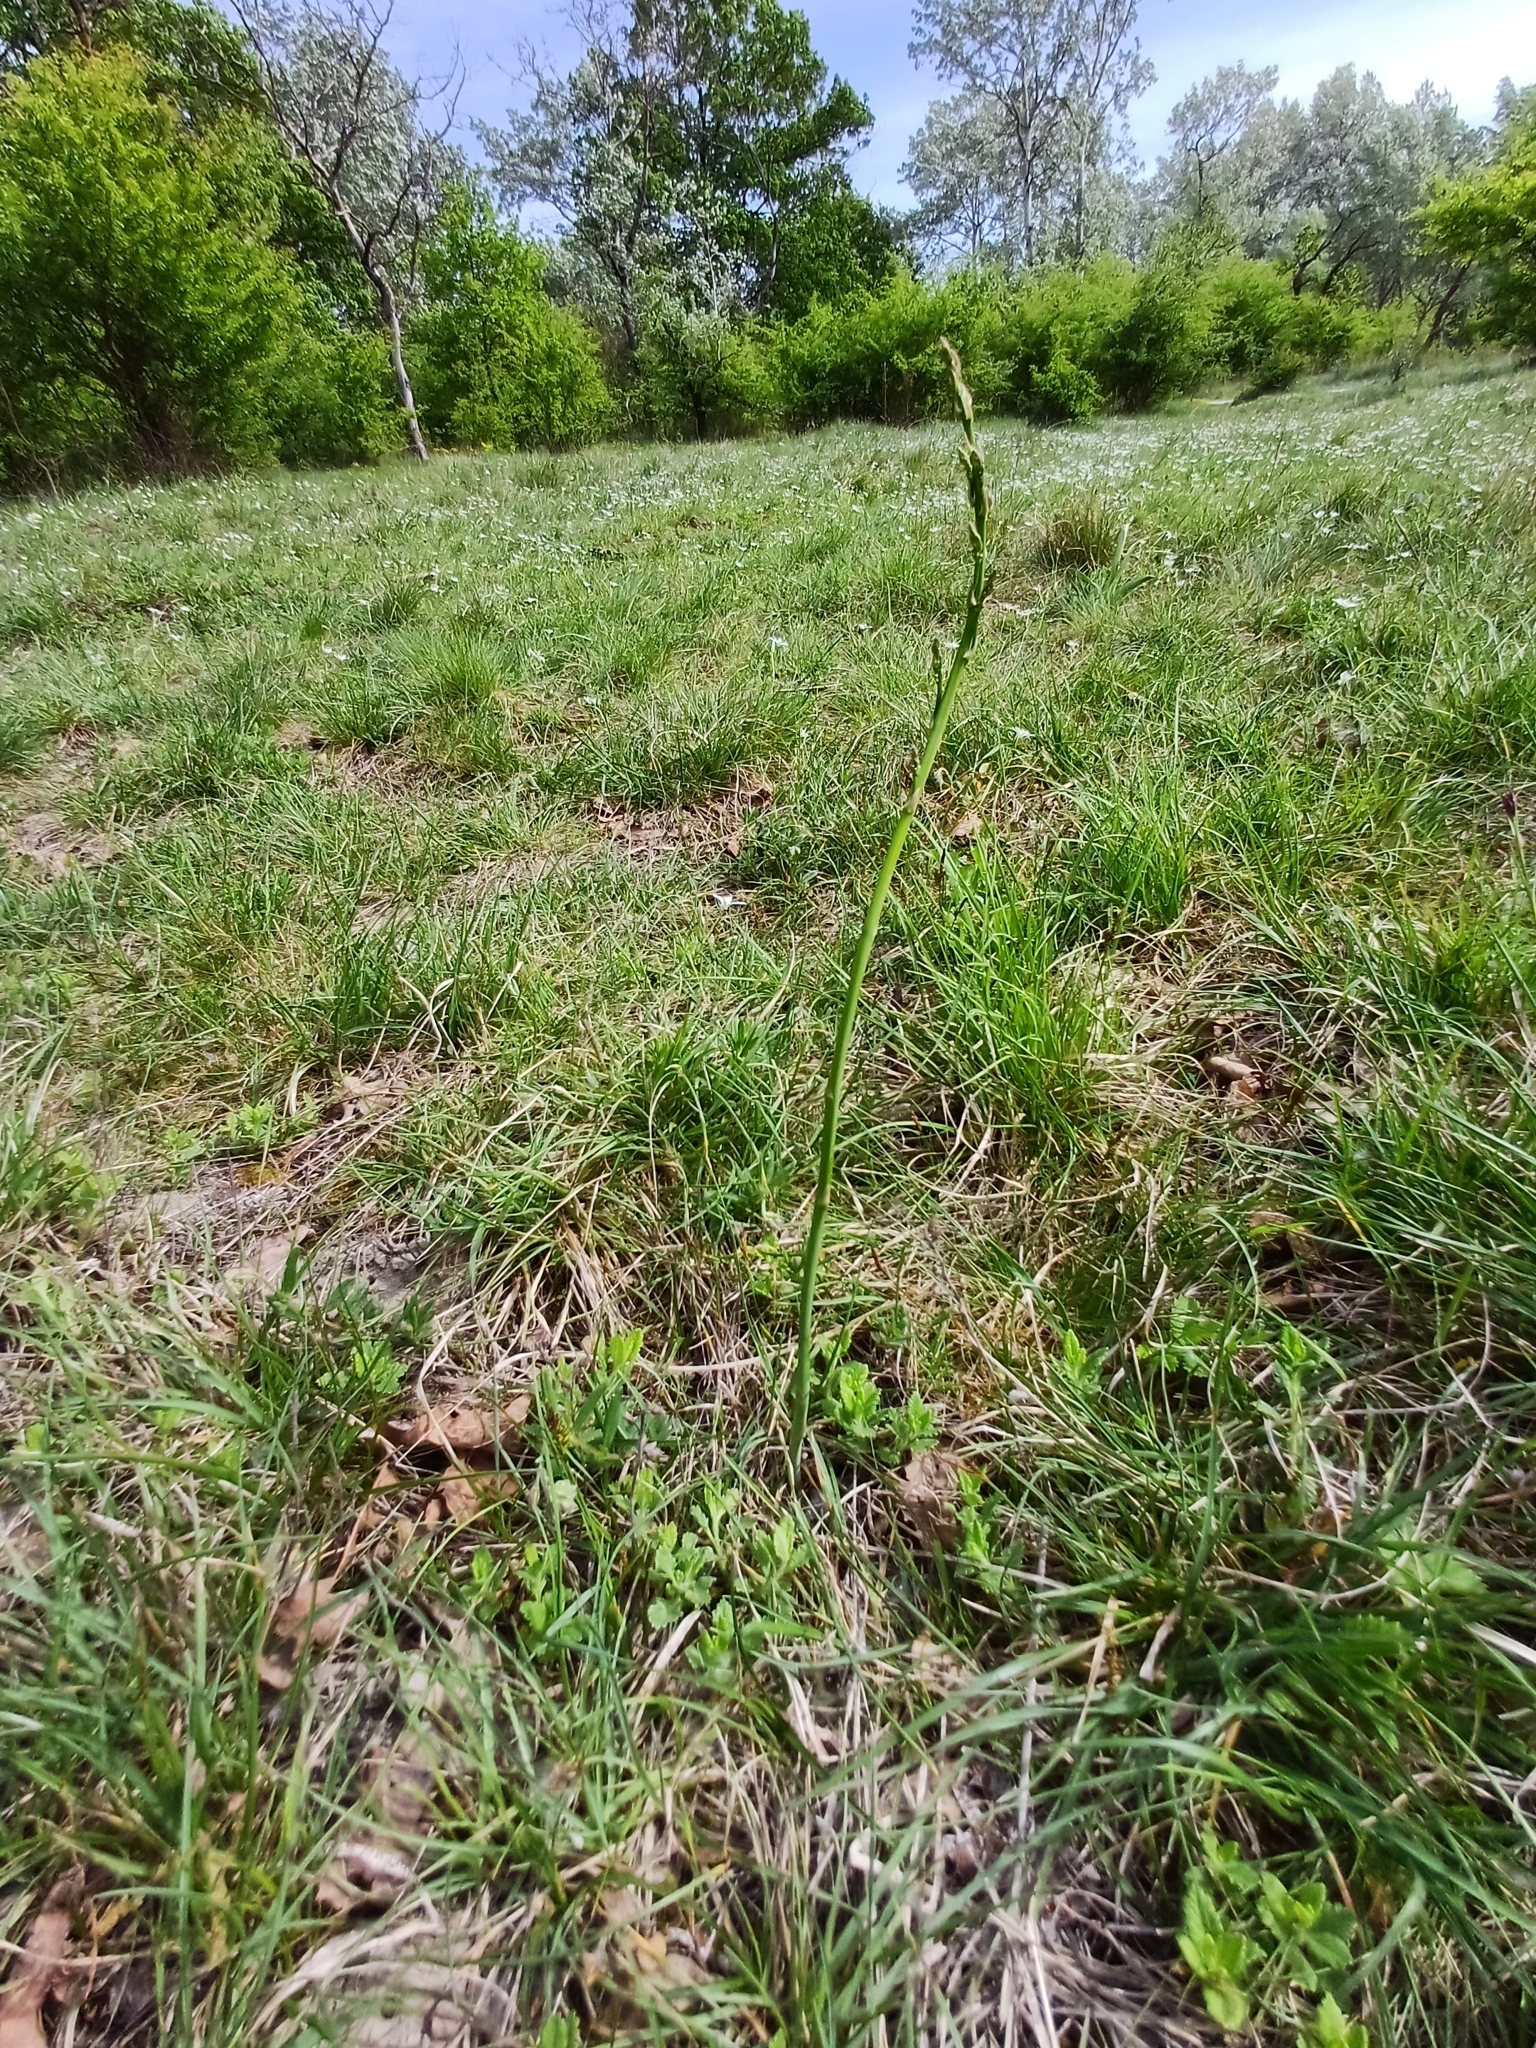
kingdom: Plantae
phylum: Tracheophyta
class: Liliopsida
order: Asparagales
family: Asparagaceae
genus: Asparagus
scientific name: Asparagus officinalis
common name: Garden asparagus
